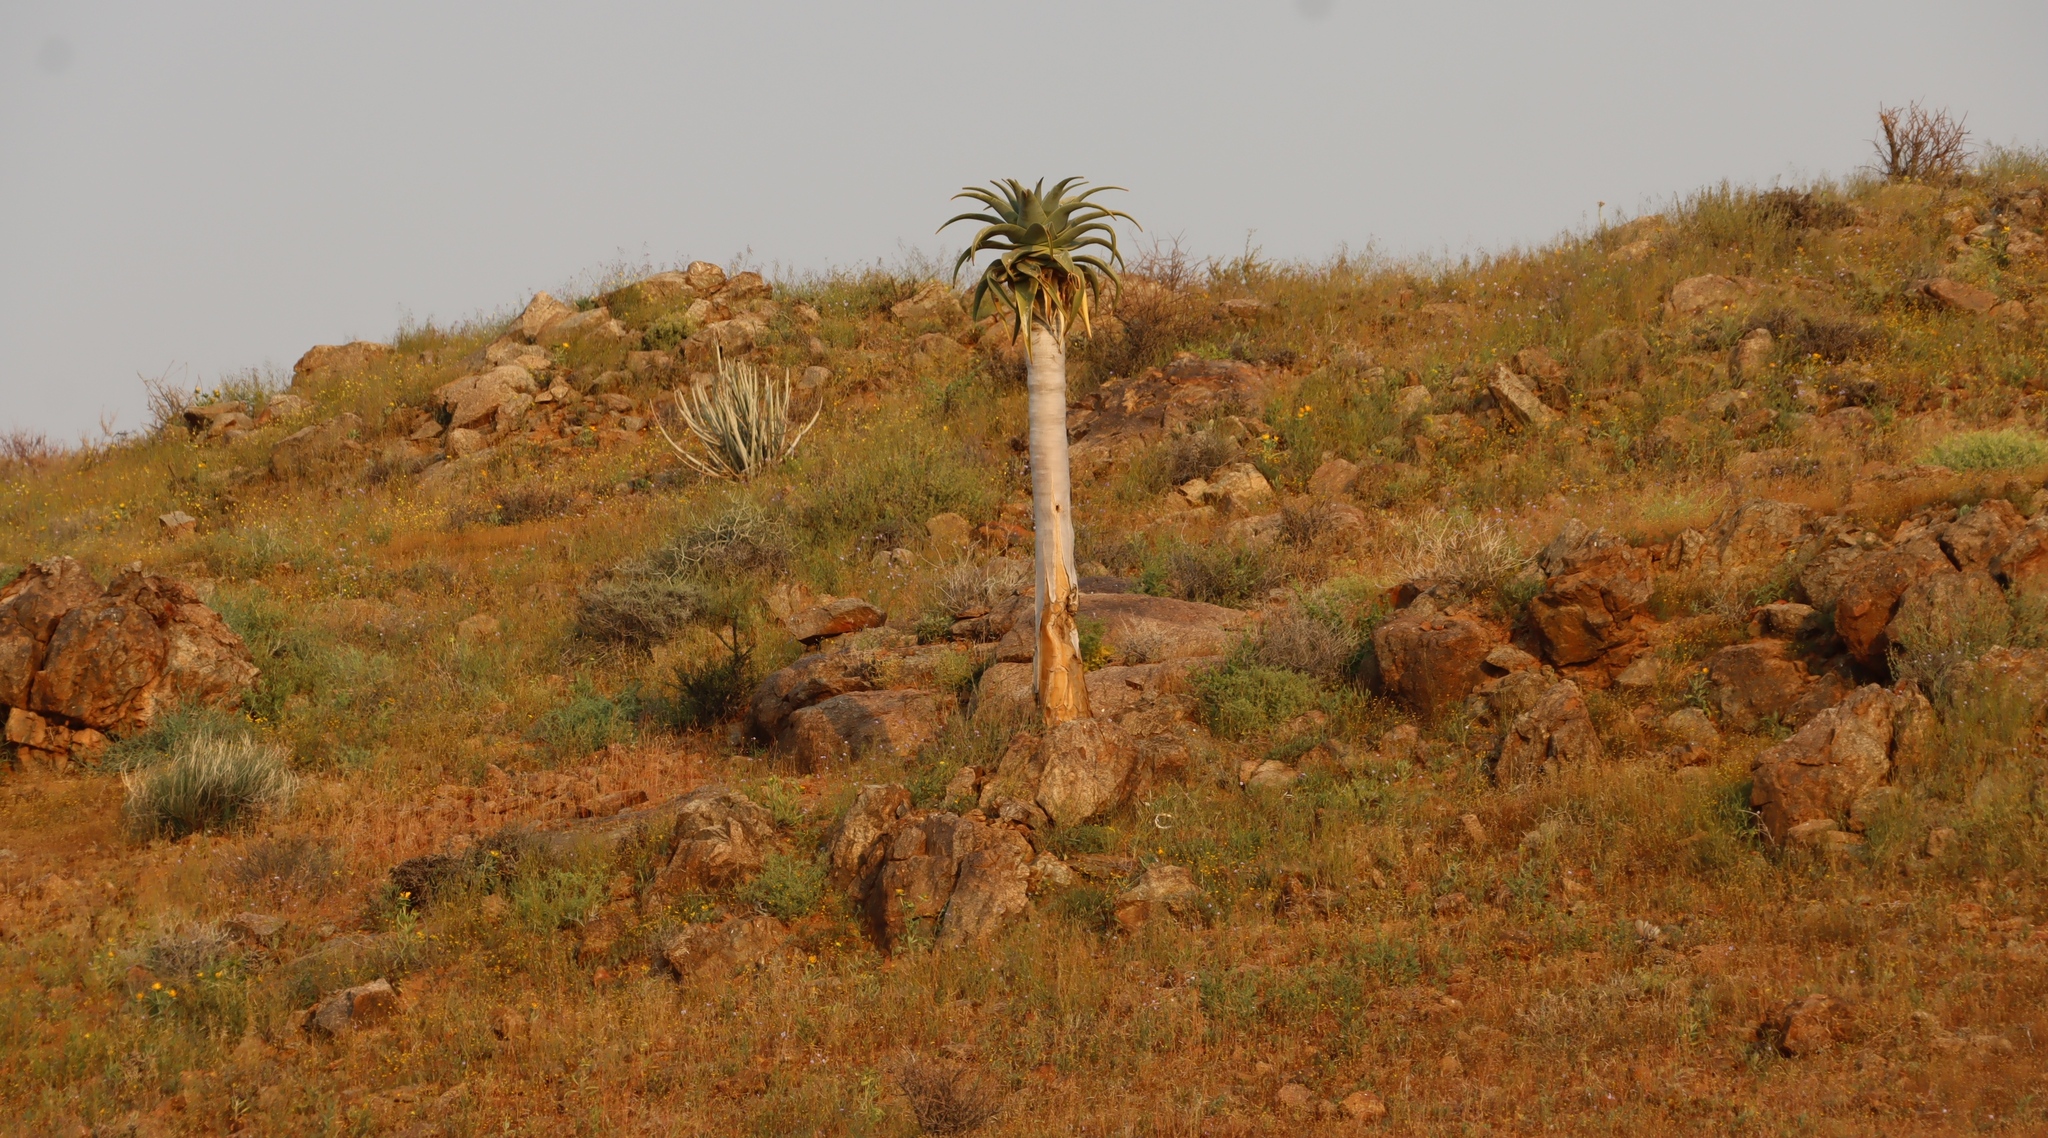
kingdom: Plantae
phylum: Tracheophyta
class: Liliopsida
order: Asparagales
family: Asphodelaceae
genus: Aloidendron
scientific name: Aloidendron pillansii
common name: Bastard quiver tree
